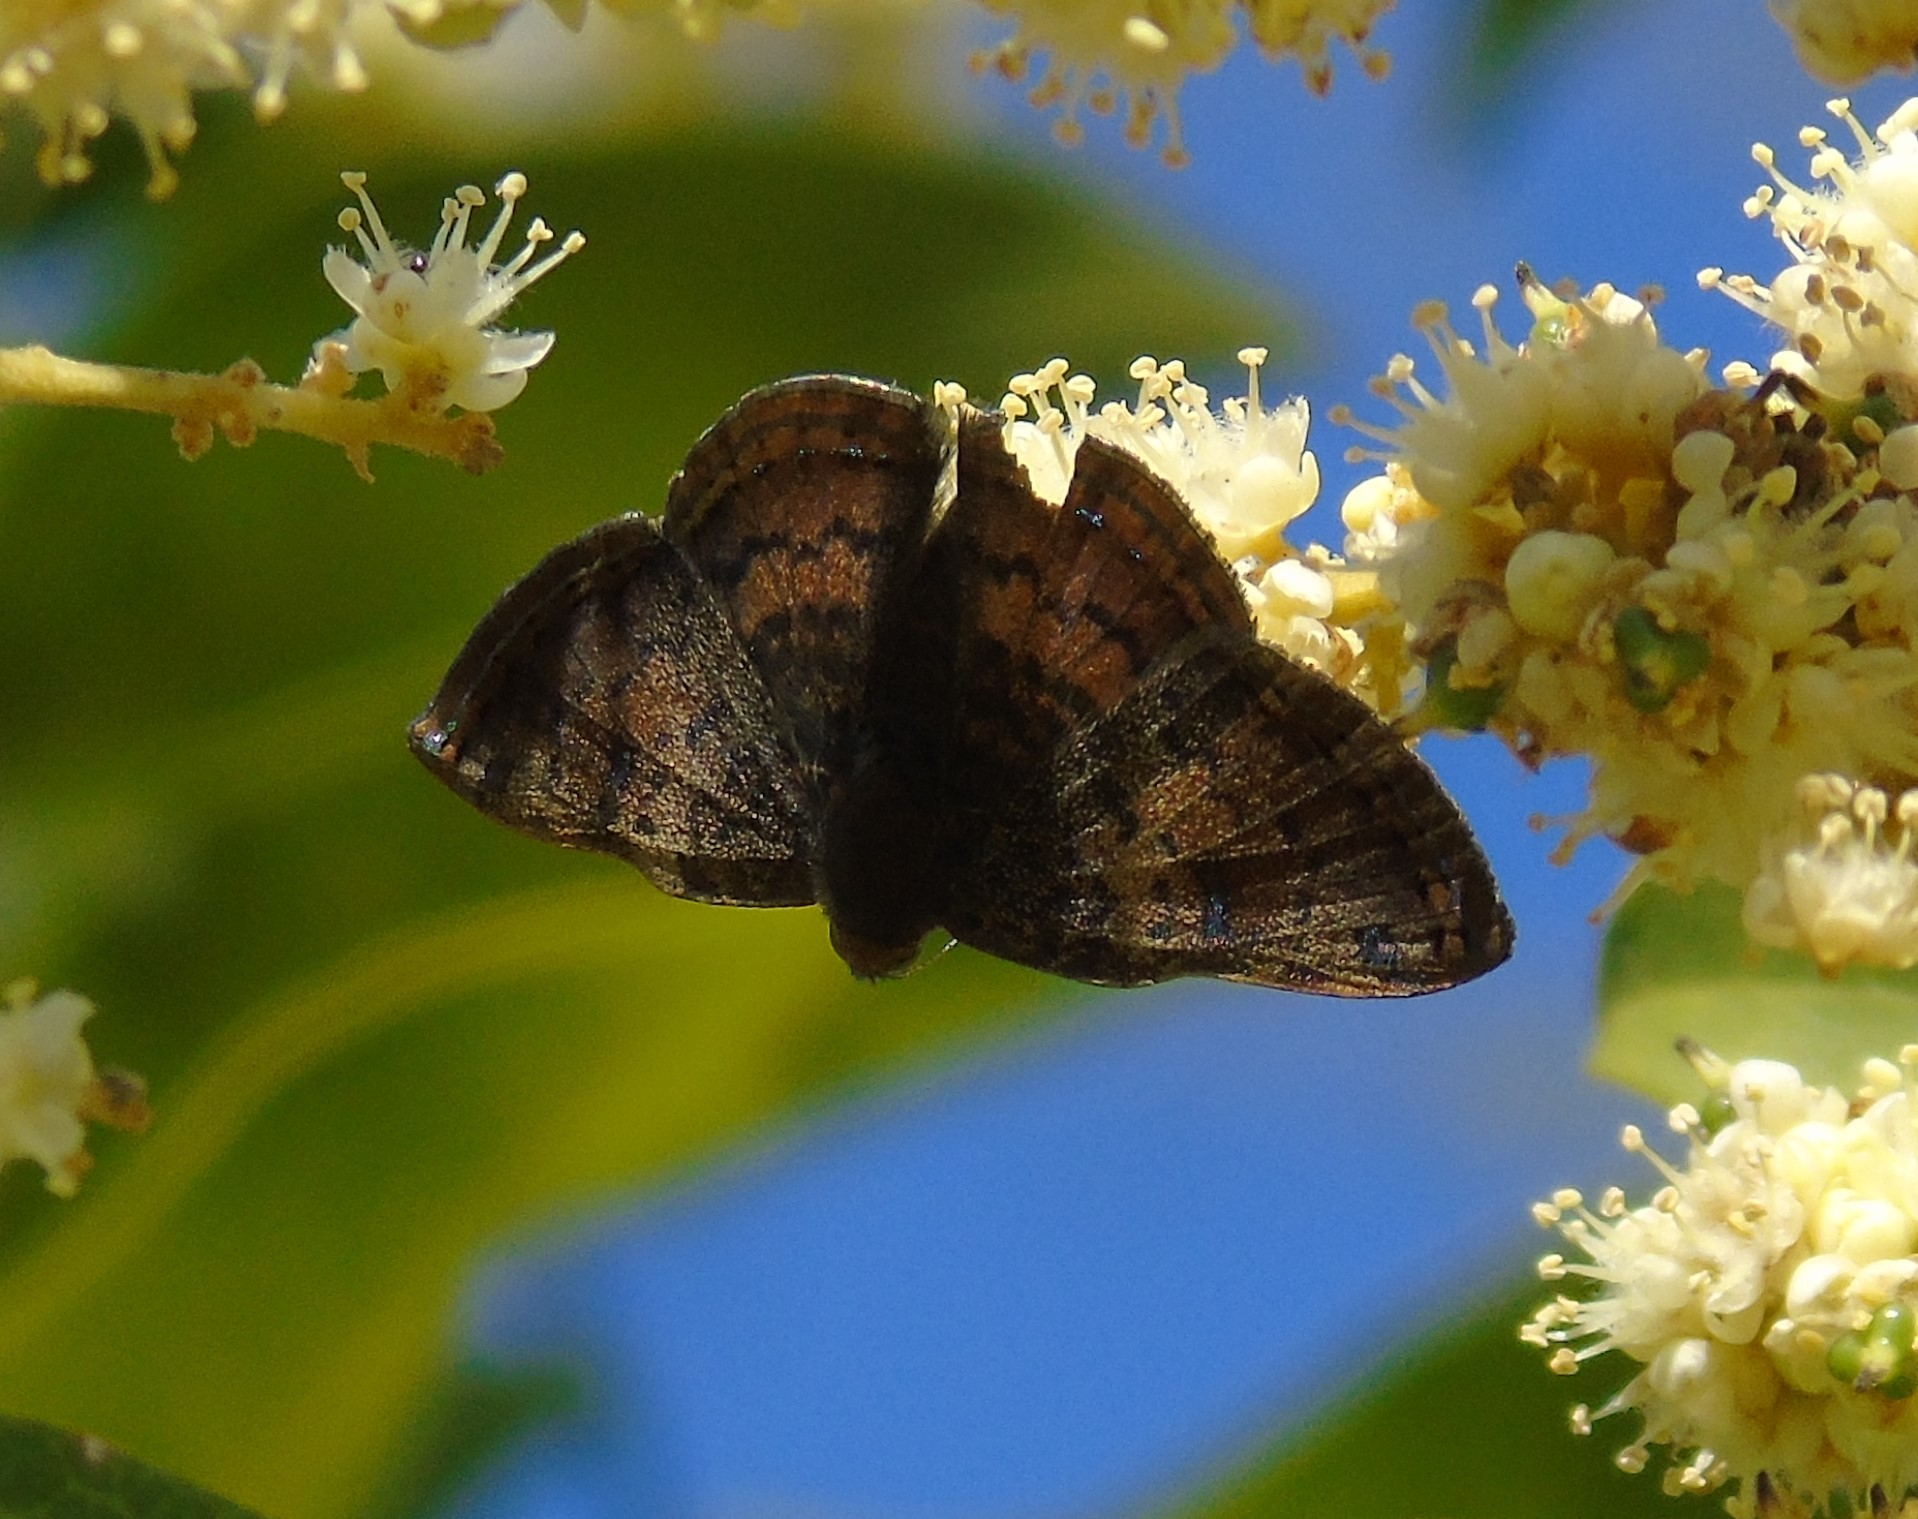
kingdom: Animalia
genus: Caria
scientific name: Caria ino
